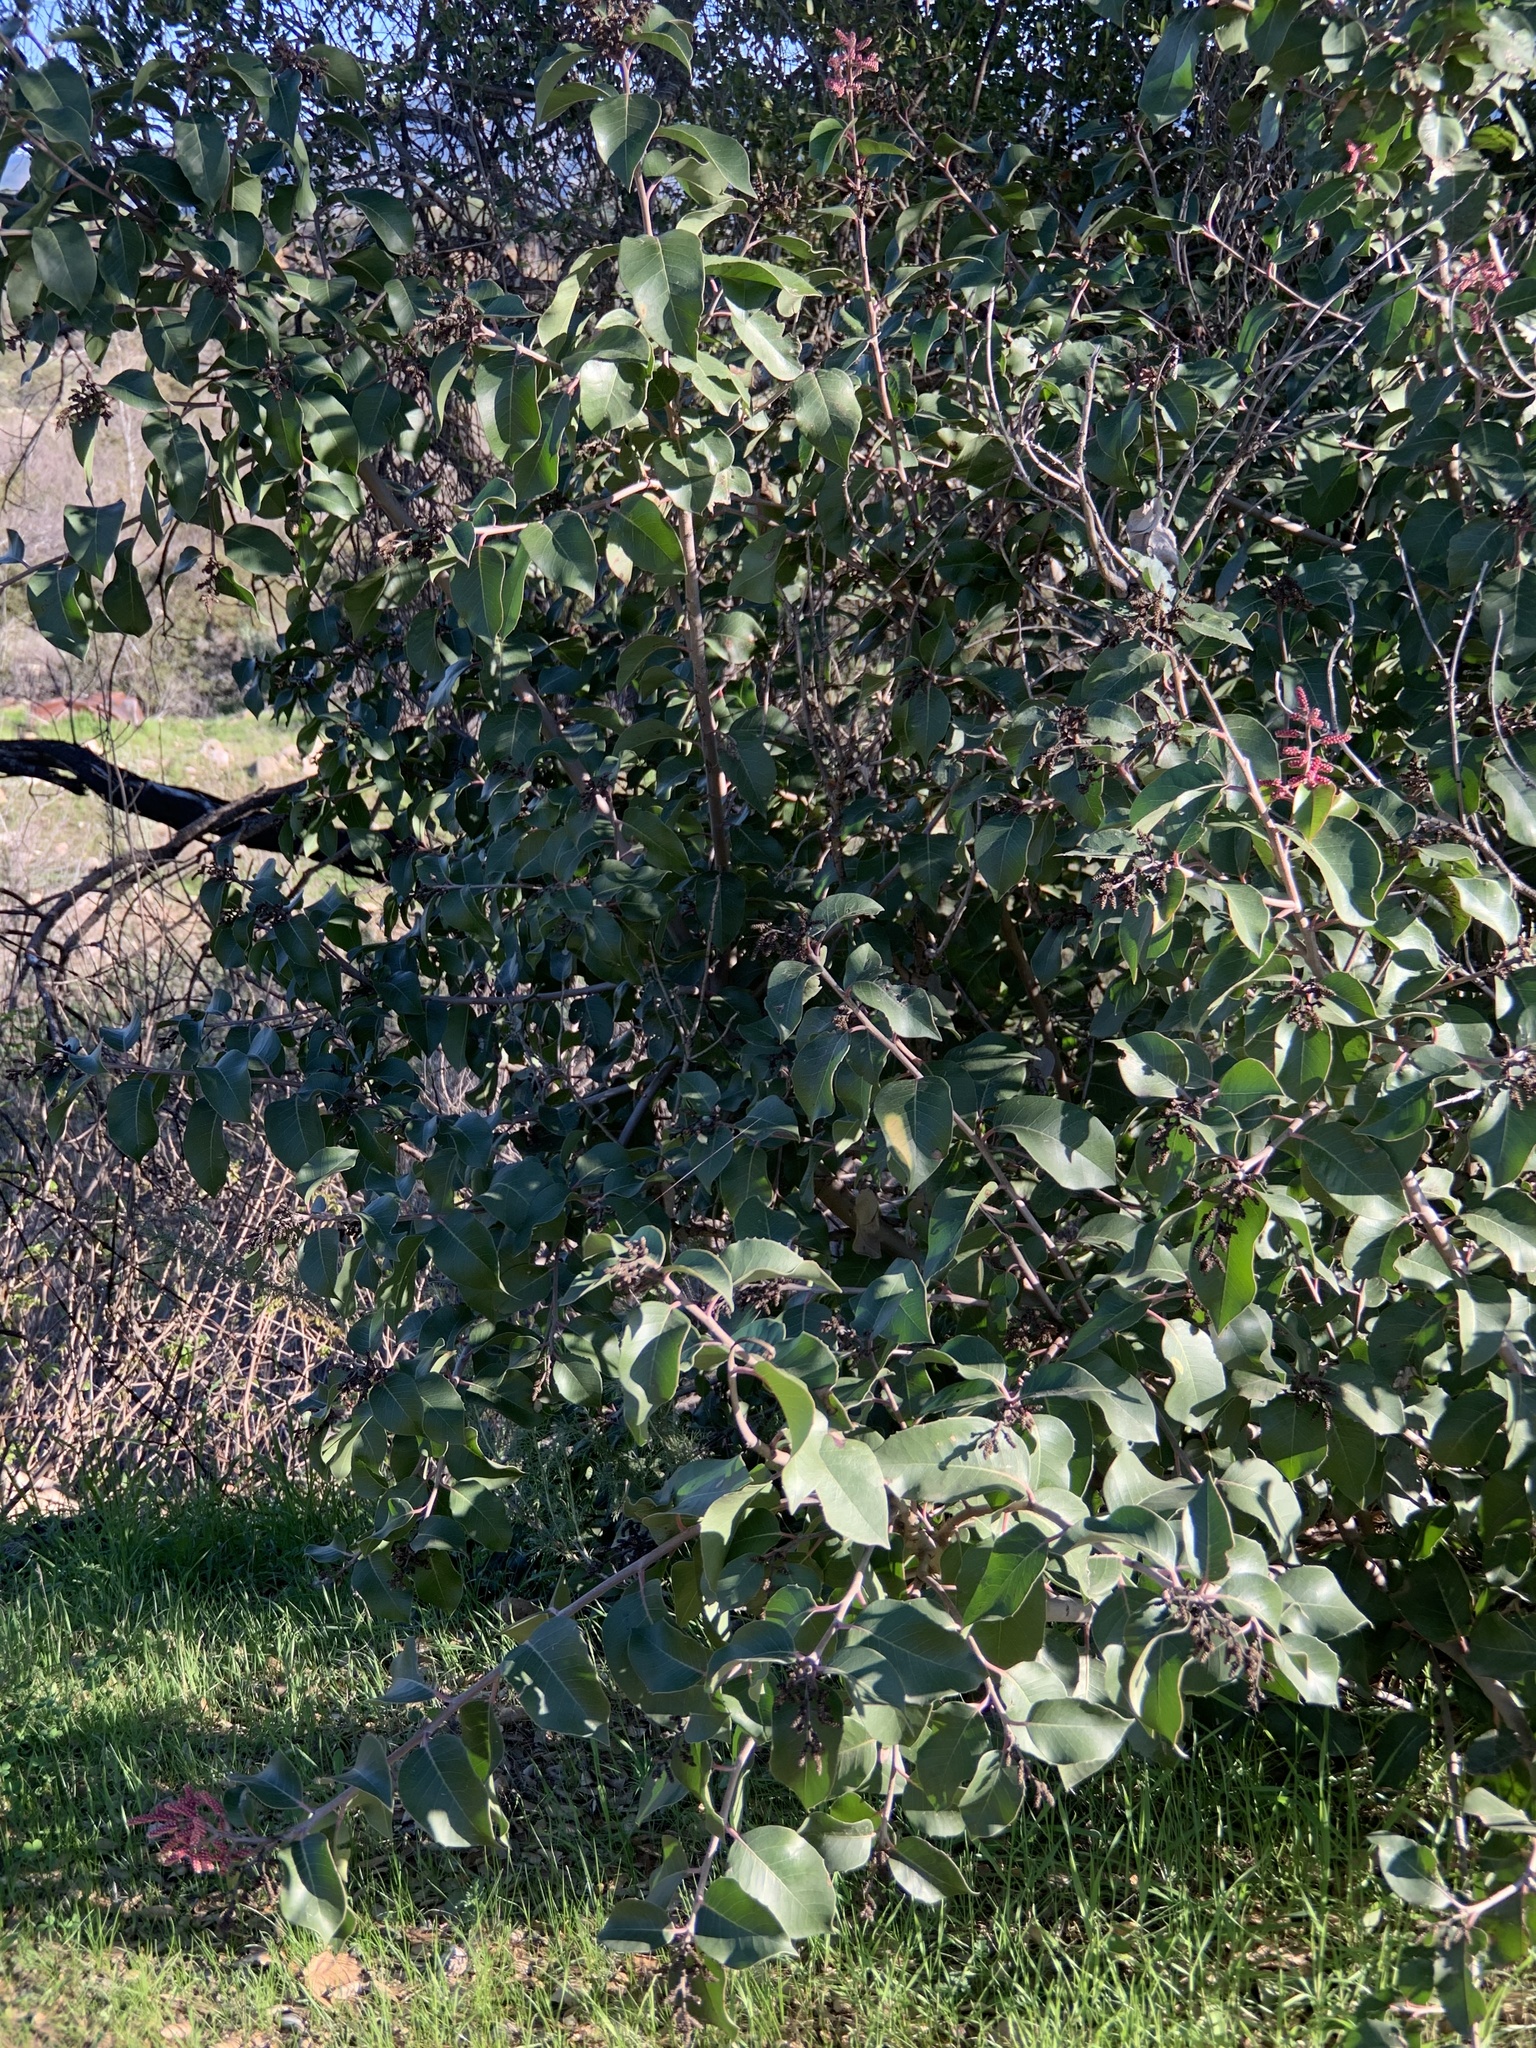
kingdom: Plantae
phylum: Tracheophyta
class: Magnoliopsida
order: Sapindales
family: Anacardiaceae
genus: Rhus
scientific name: Rhus ovata
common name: Sugar sumac
